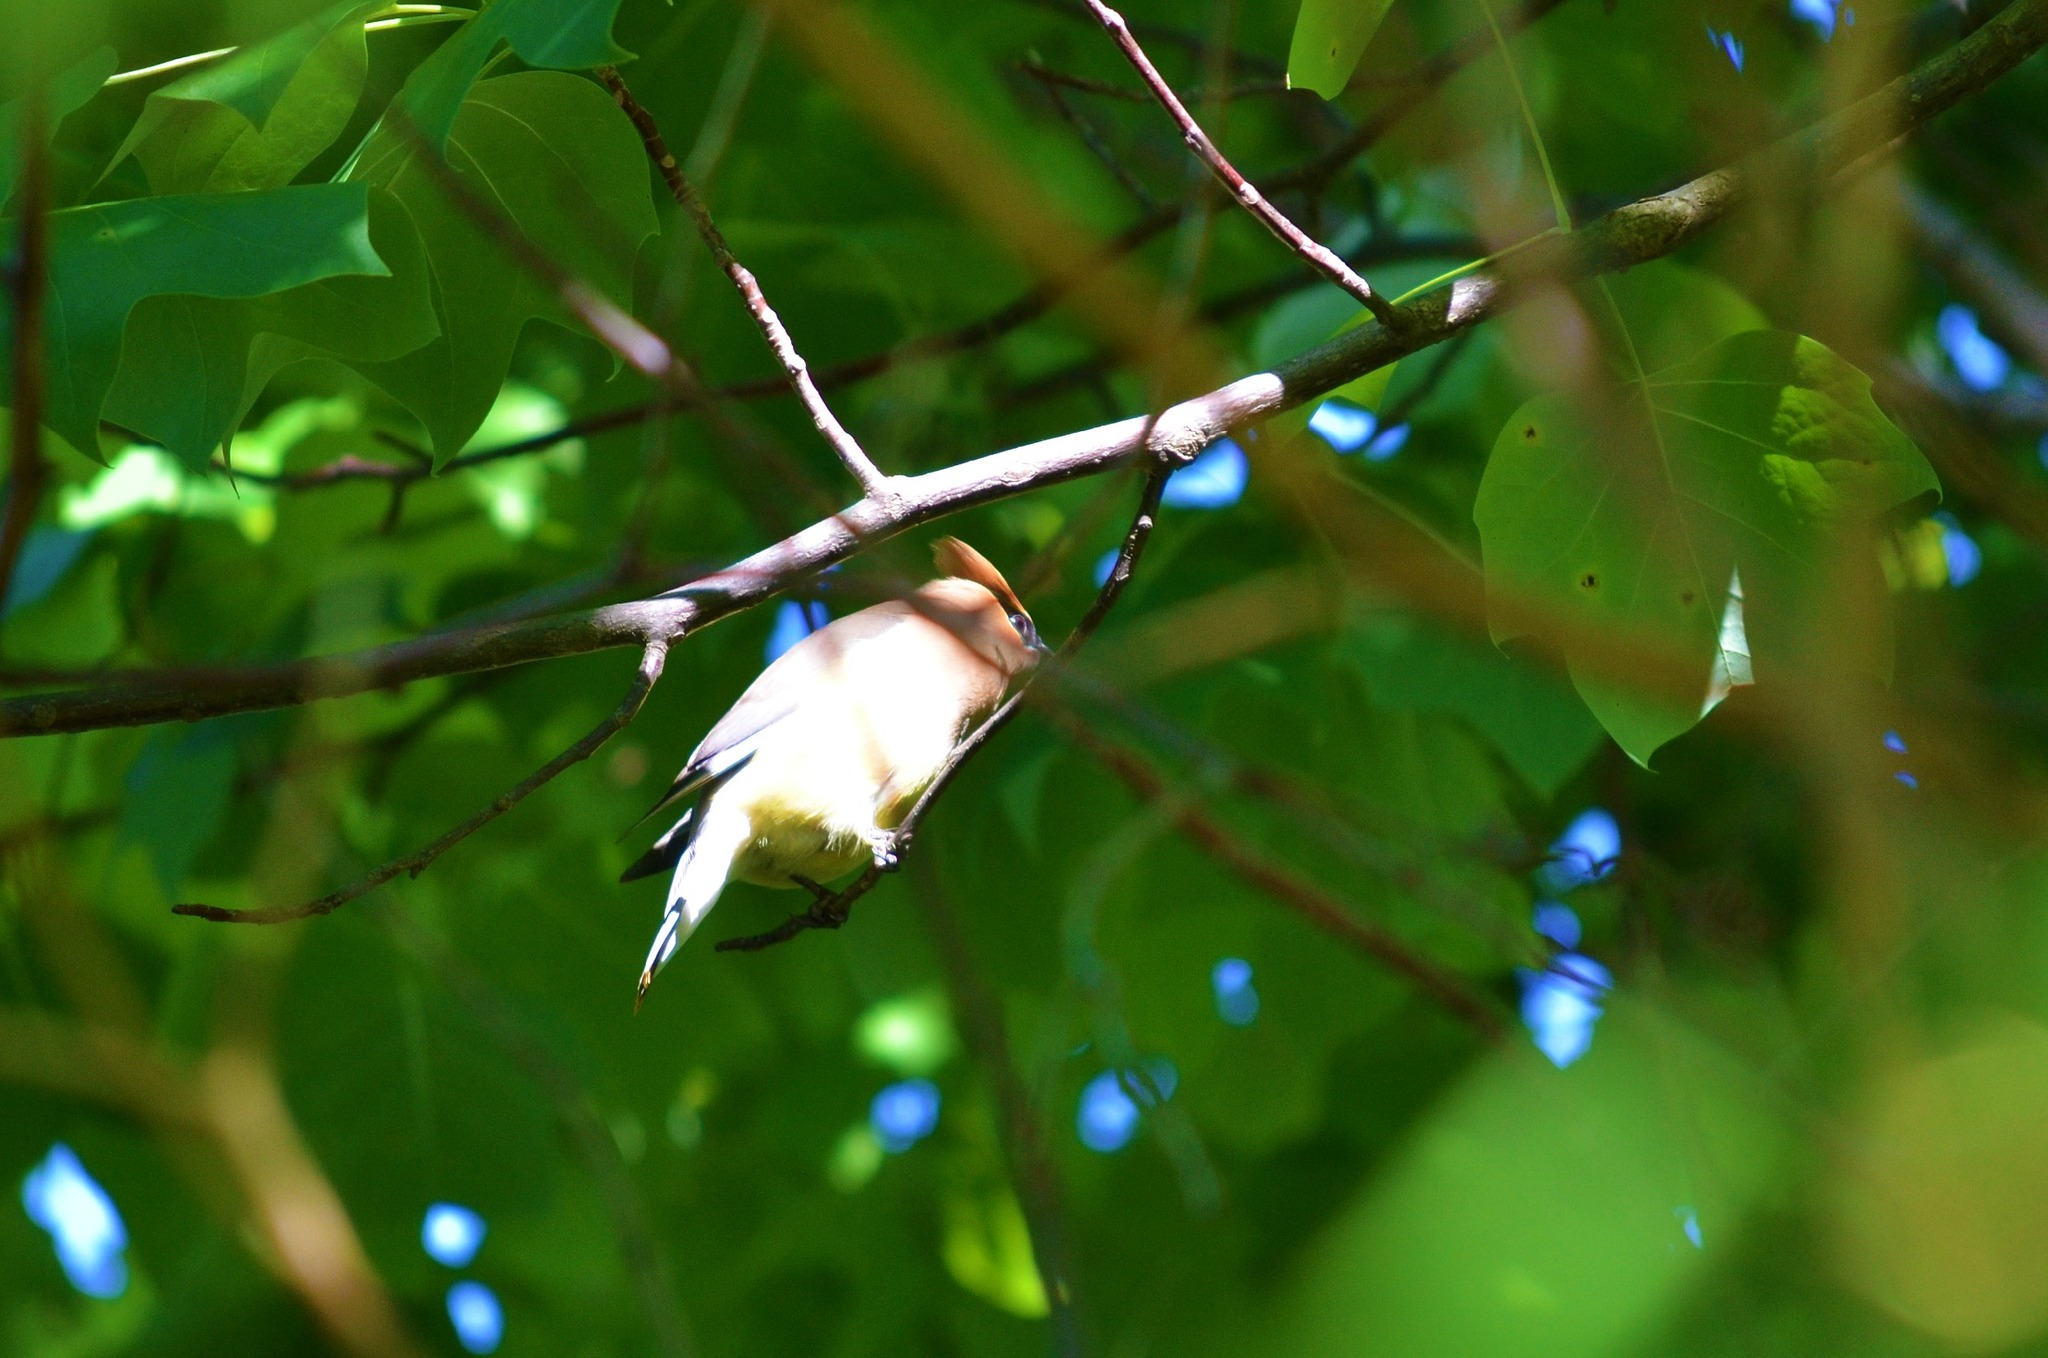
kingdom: Animalia
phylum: Chordata
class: Aves
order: Passeriformes
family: Bombycillidae
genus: Bombycilla
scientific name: Bombycilla cedrorum
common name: Cedar waxwing
